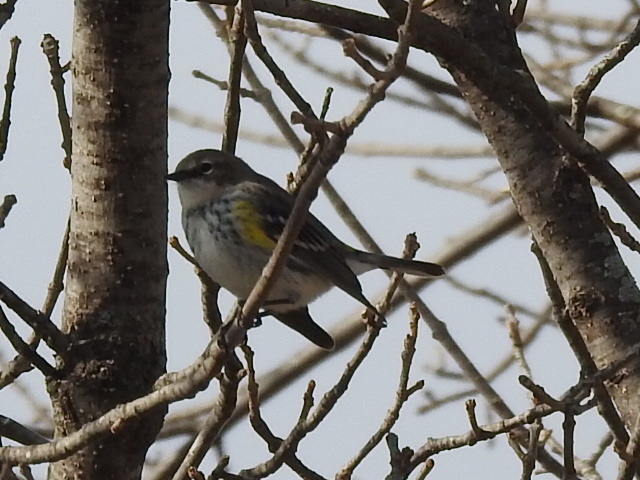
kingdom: Animalia
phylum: Chordata
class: Aves
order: Passeriformes
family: Parulidae
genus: Setophaga
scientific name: Setophaga coronata
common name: Myrtle warbler
